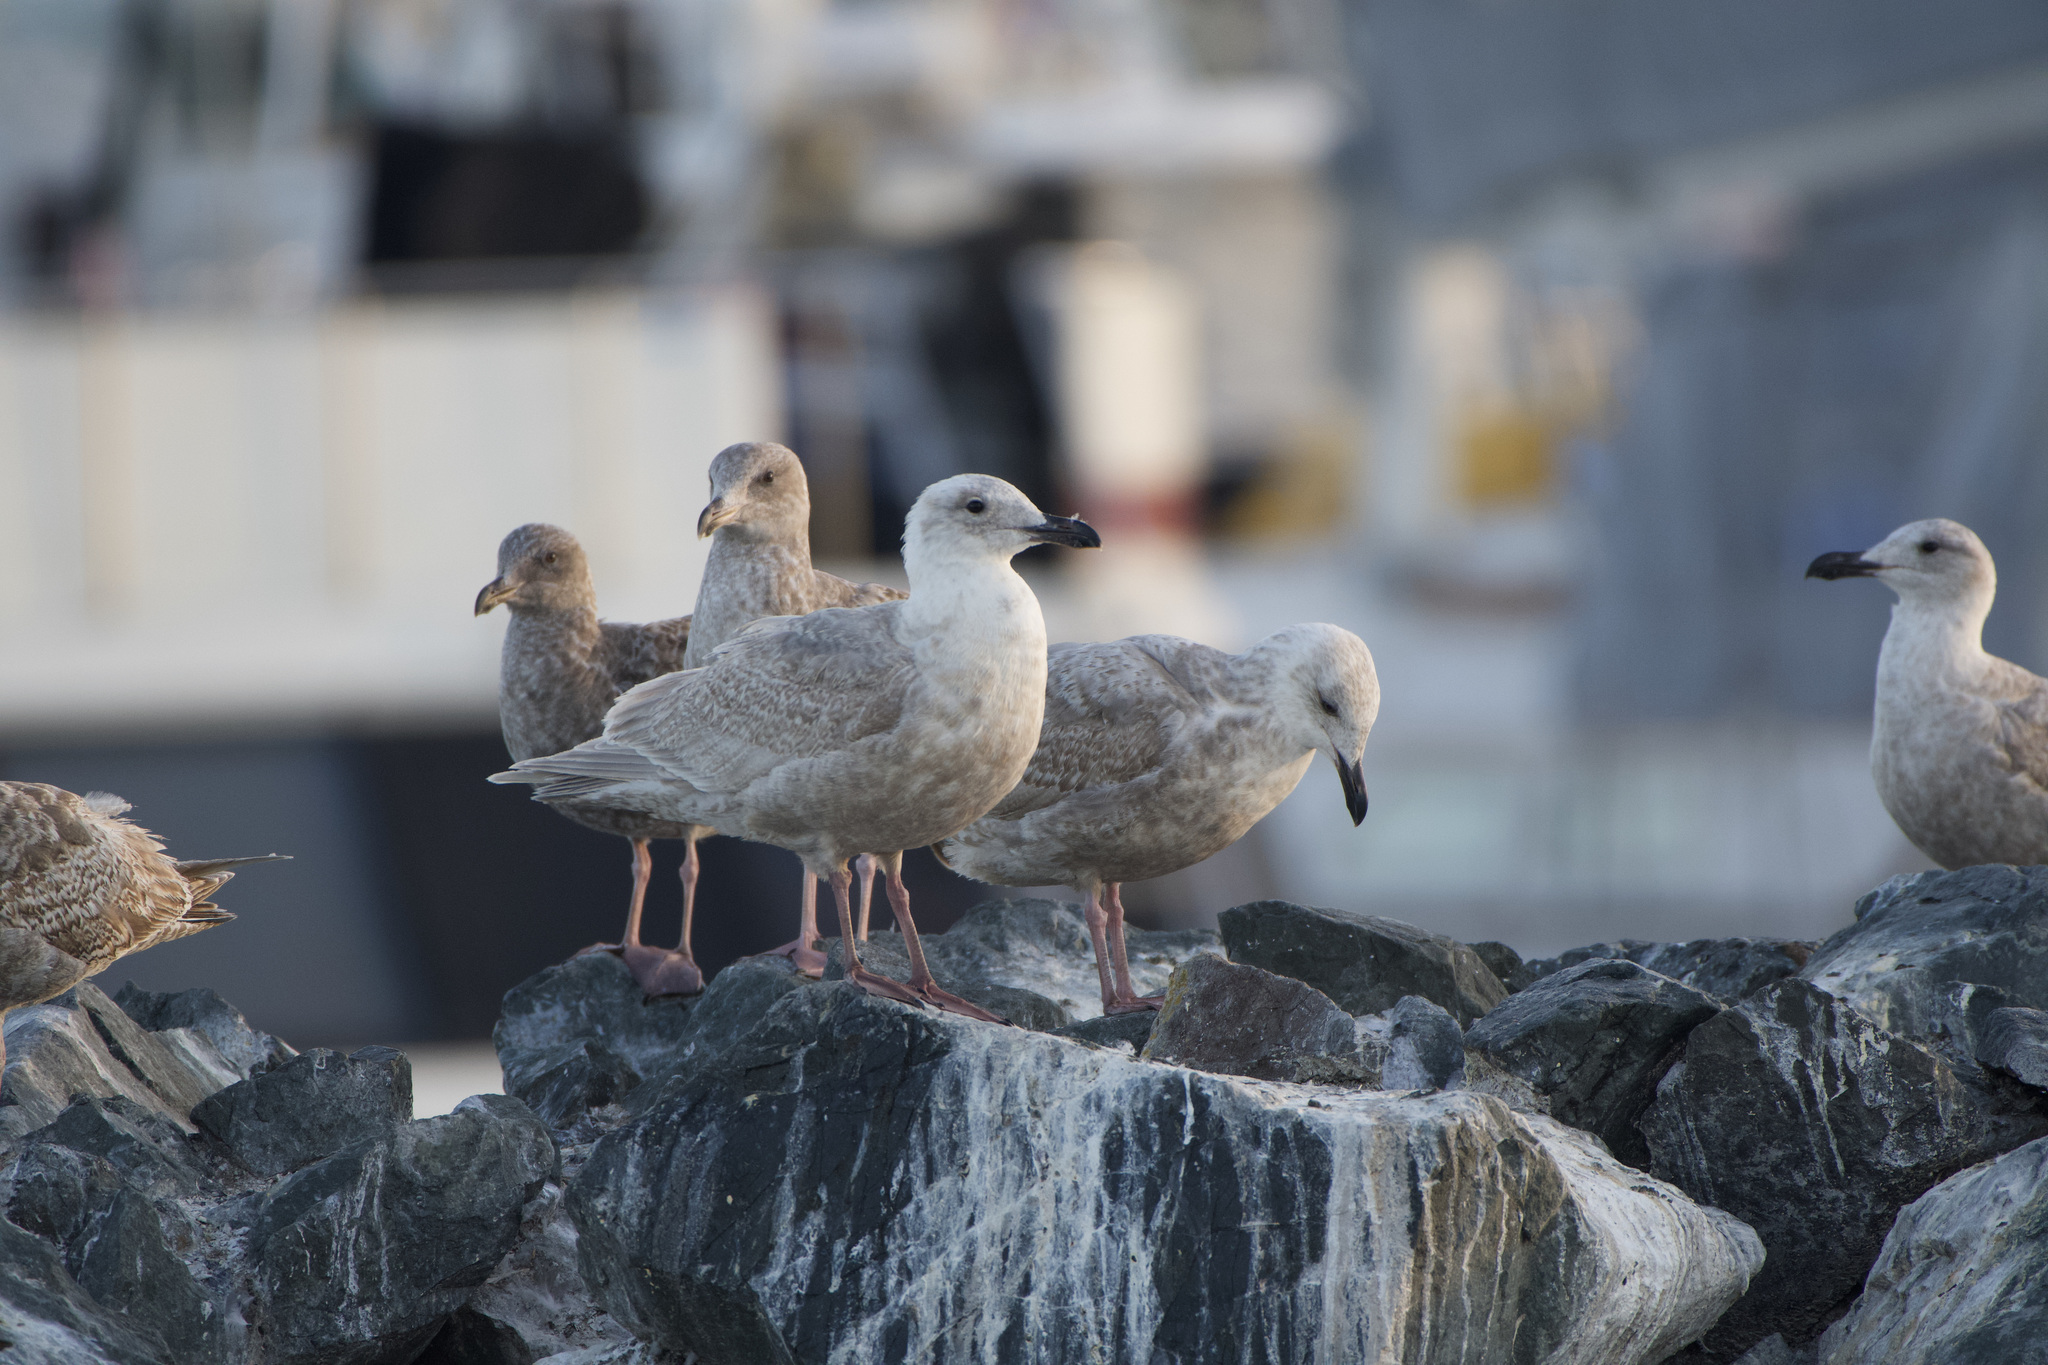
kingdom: Animalia
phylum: Chordata
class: Aves
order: Charadriiformes
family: Laridae
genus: Larus
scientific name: Larus glaucescens
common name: Glaucous-winged gull
